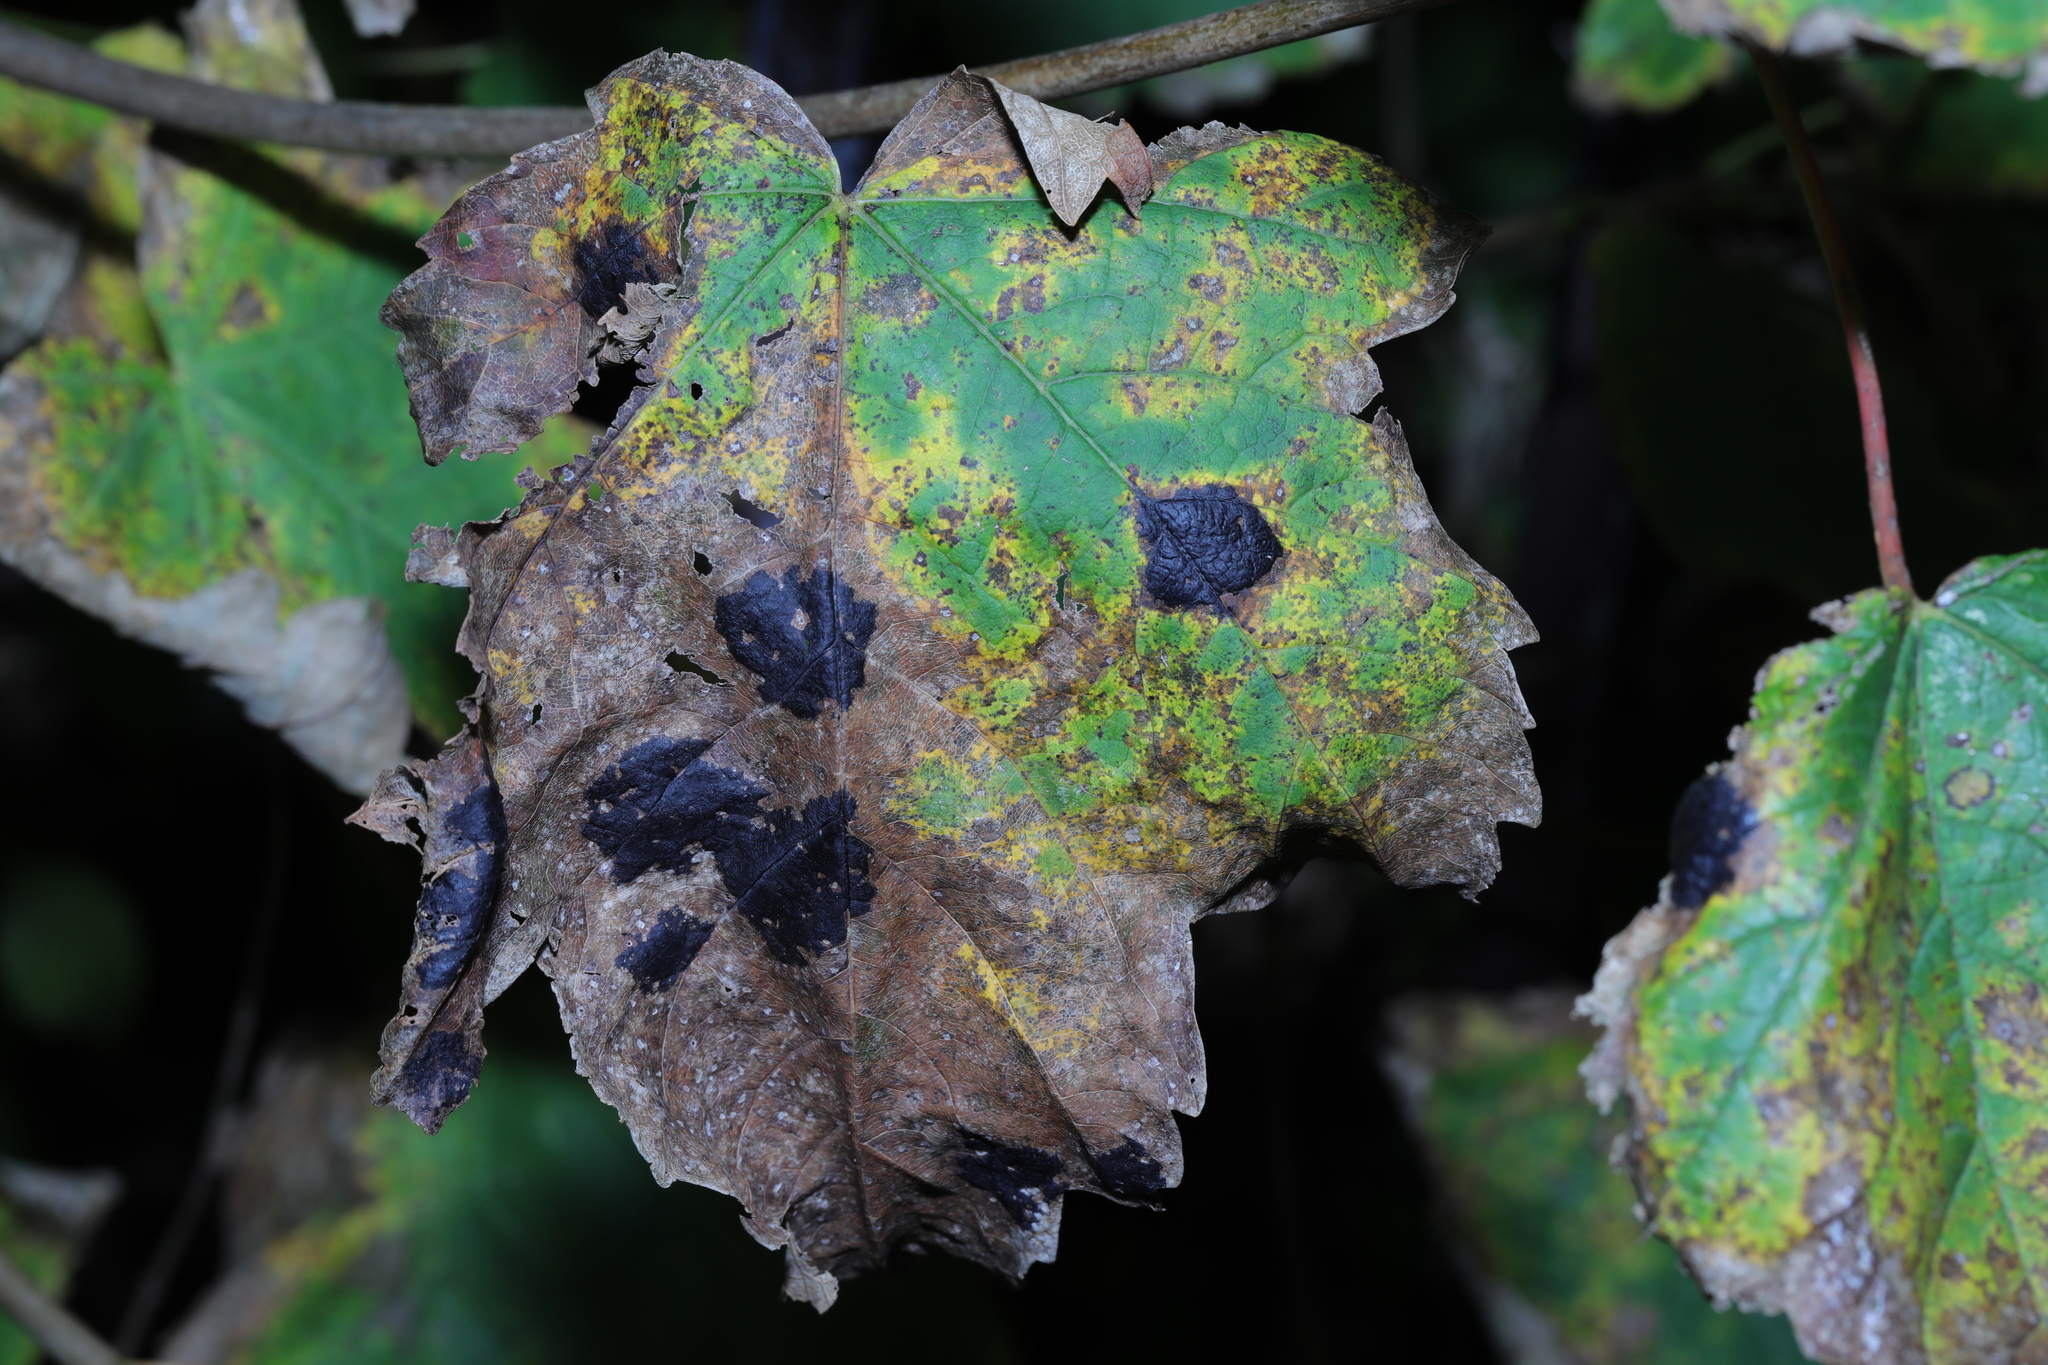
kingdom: Fungi
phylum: Ascomycota
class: Leotiomycetes
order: Rhytismatales
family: Rhytismataceae
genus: Rhytisma
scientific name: Rhytisma acerinum
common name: European tar spot
